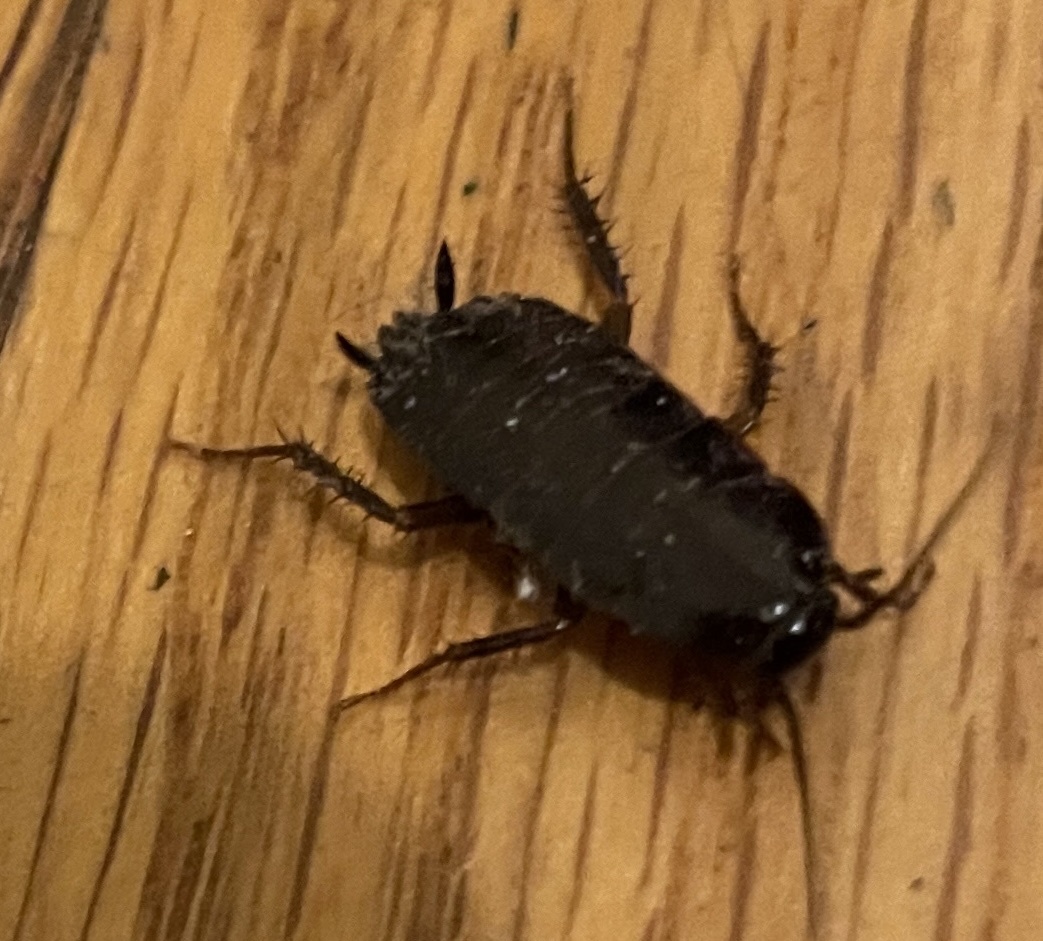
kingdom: Animalia
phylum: Arthropoda
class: Insecta
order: Blattodea
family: Blattidae
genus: Blatta
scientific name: Blatta orientalis
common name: Oriental cockroach
